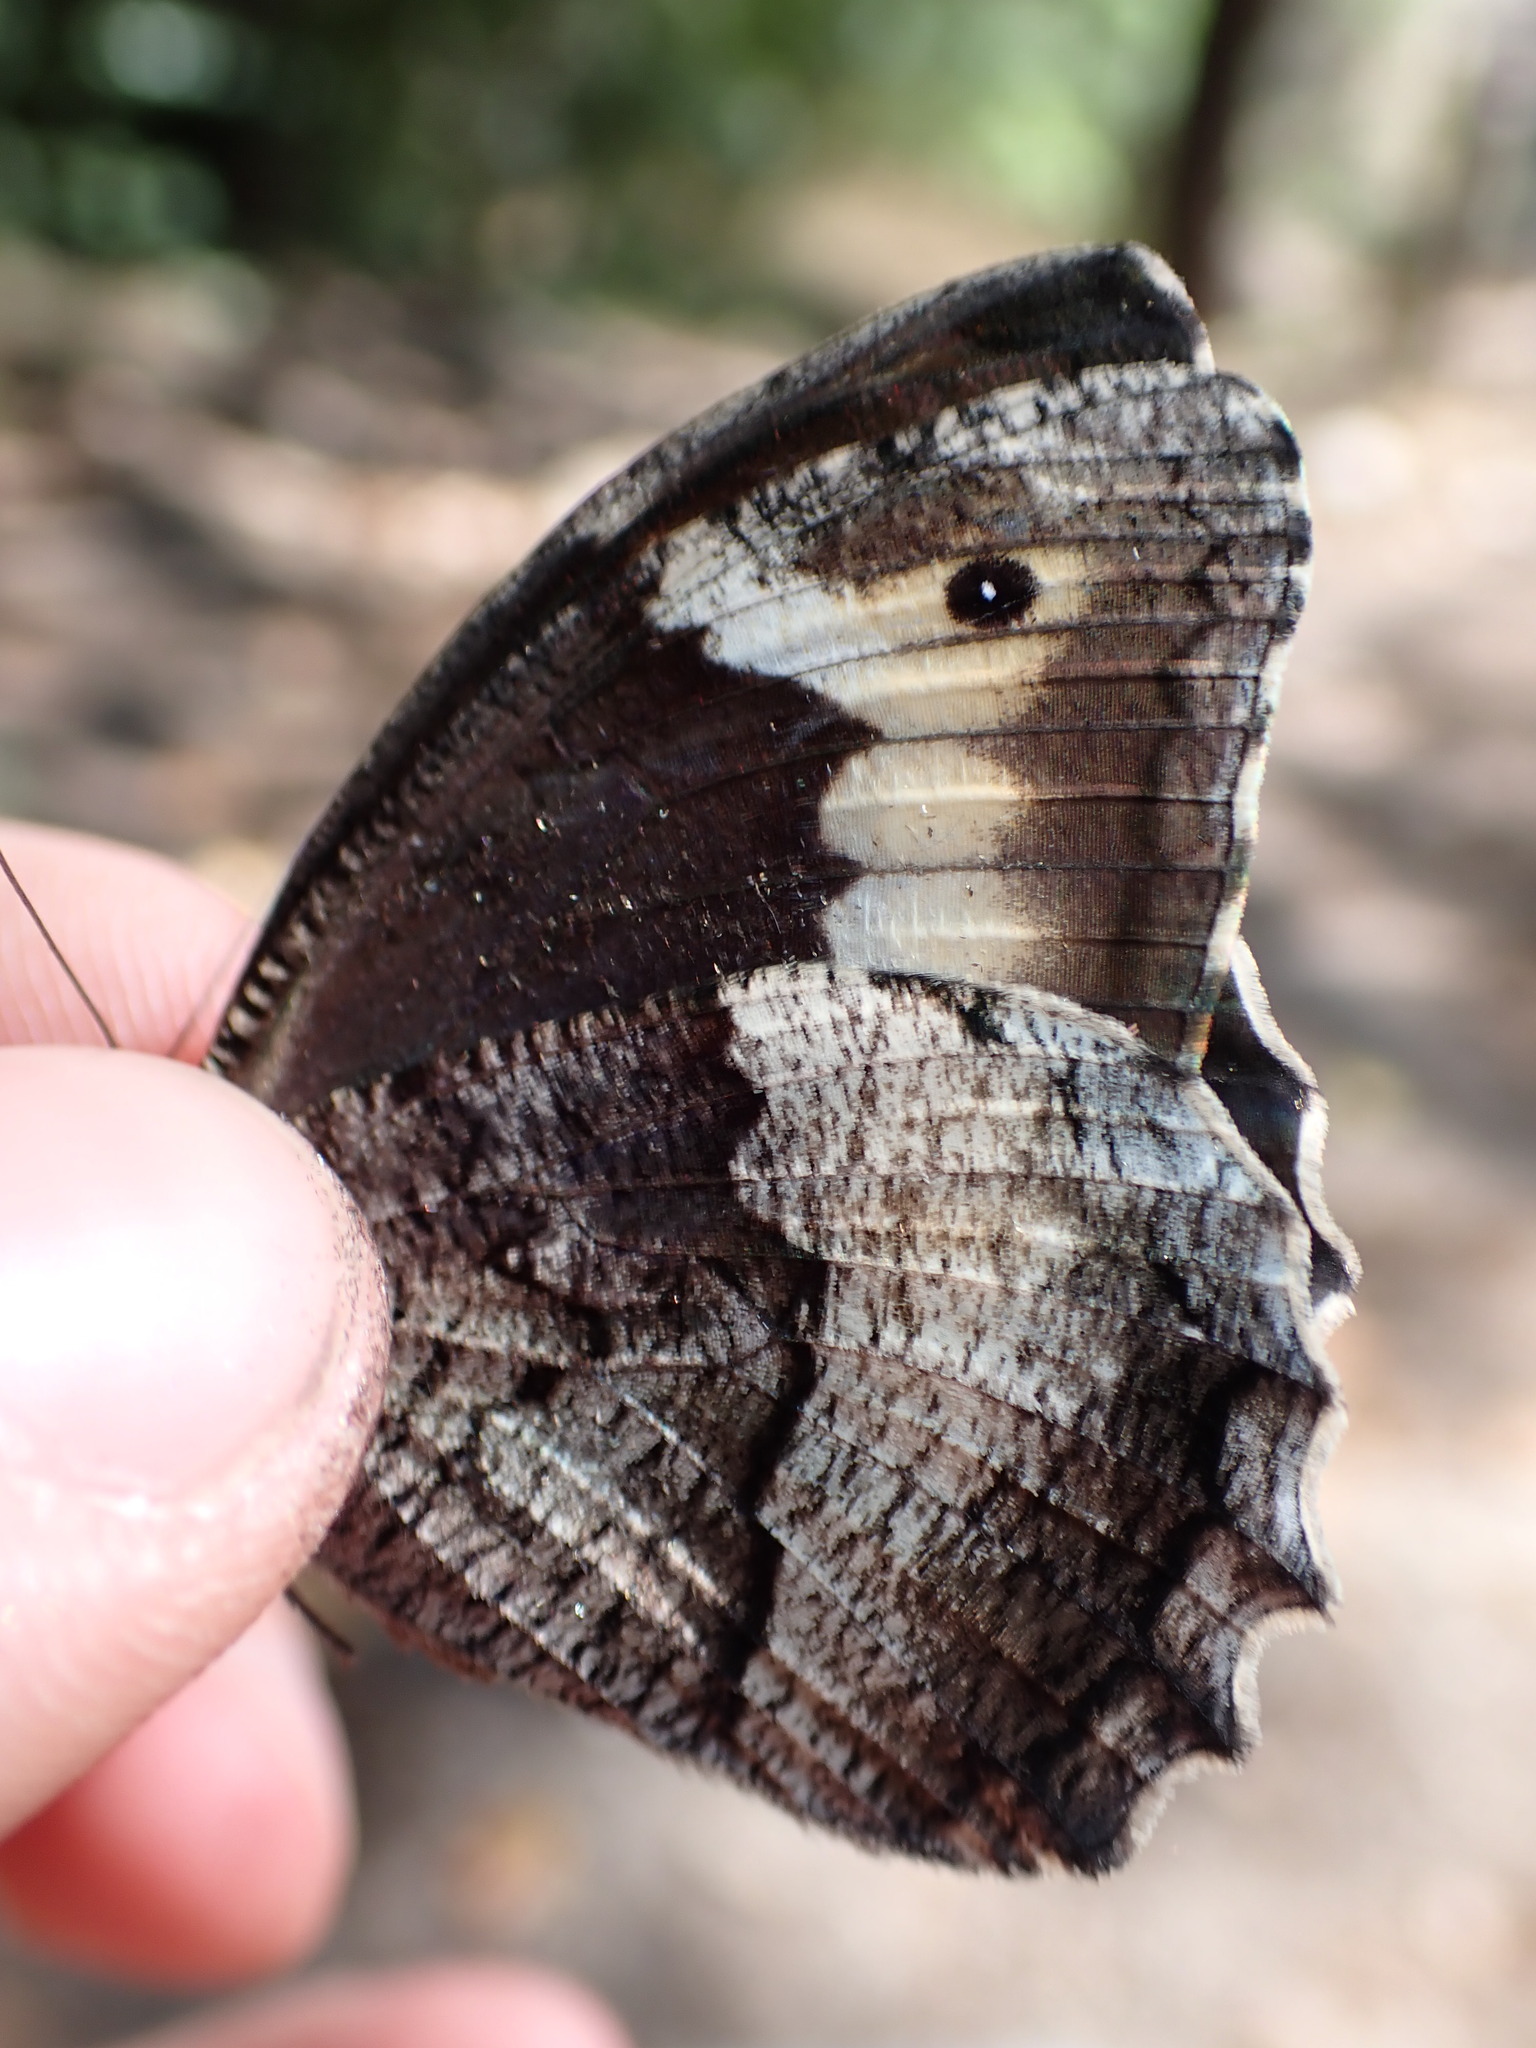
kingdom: Animalia
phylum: Arthropoda
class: Insecta
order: Lepidoptera
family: Nymphalidae
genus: Hipparchia
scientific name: Hipparchia fagi
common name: Woodland grayling
